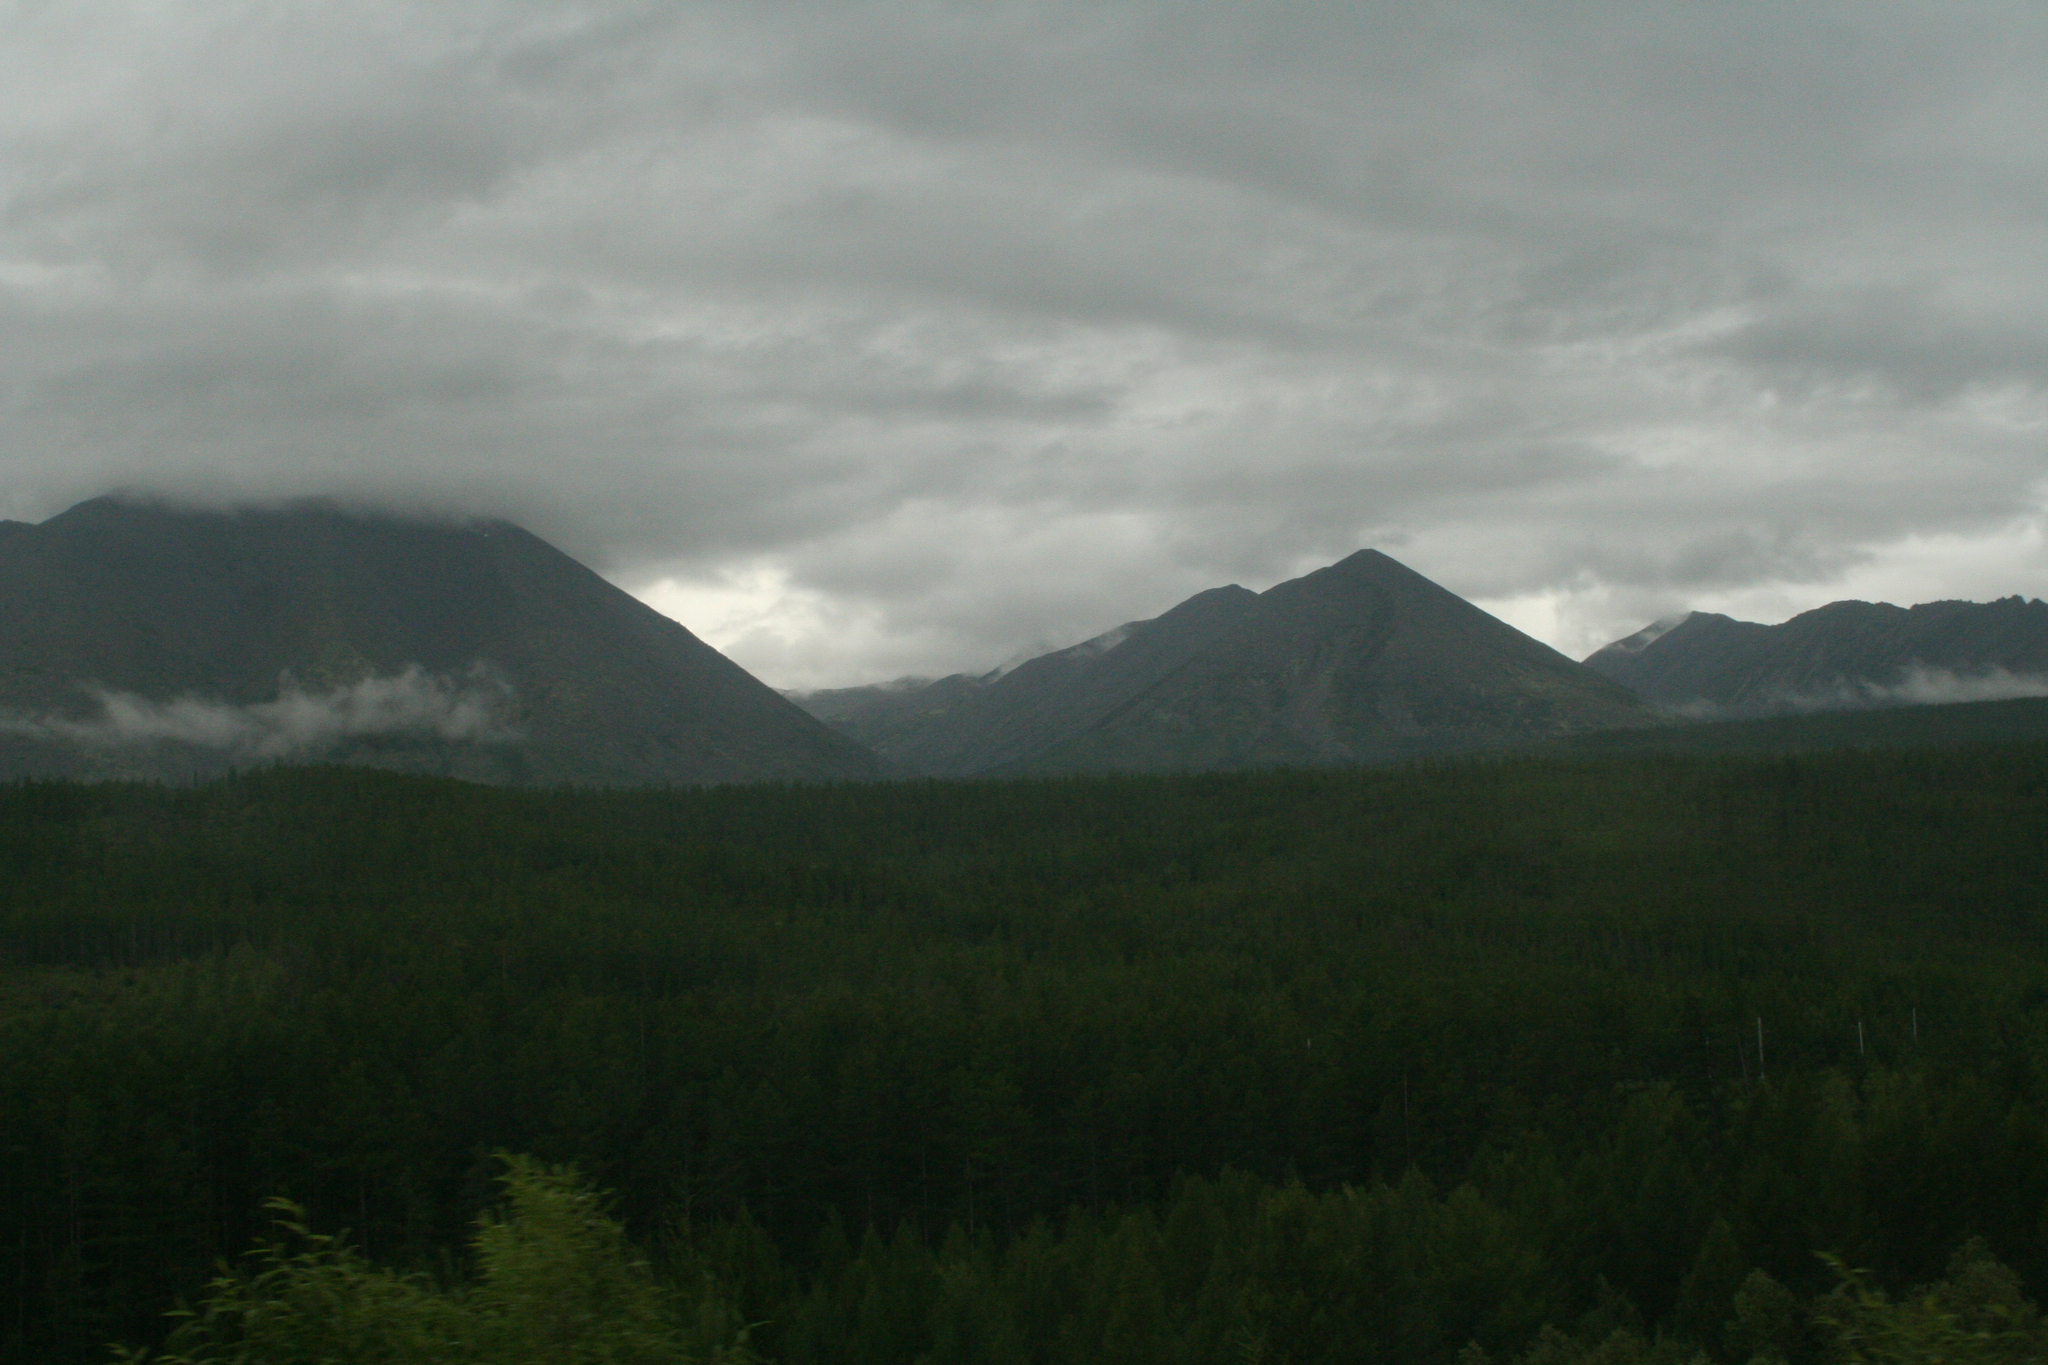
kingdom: Plantae
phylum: Tracheophyta
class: Pinopsida
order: Pinales
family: Pinaceae
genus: Larix
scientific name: Larix gmelinii
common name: Dahurian larch
